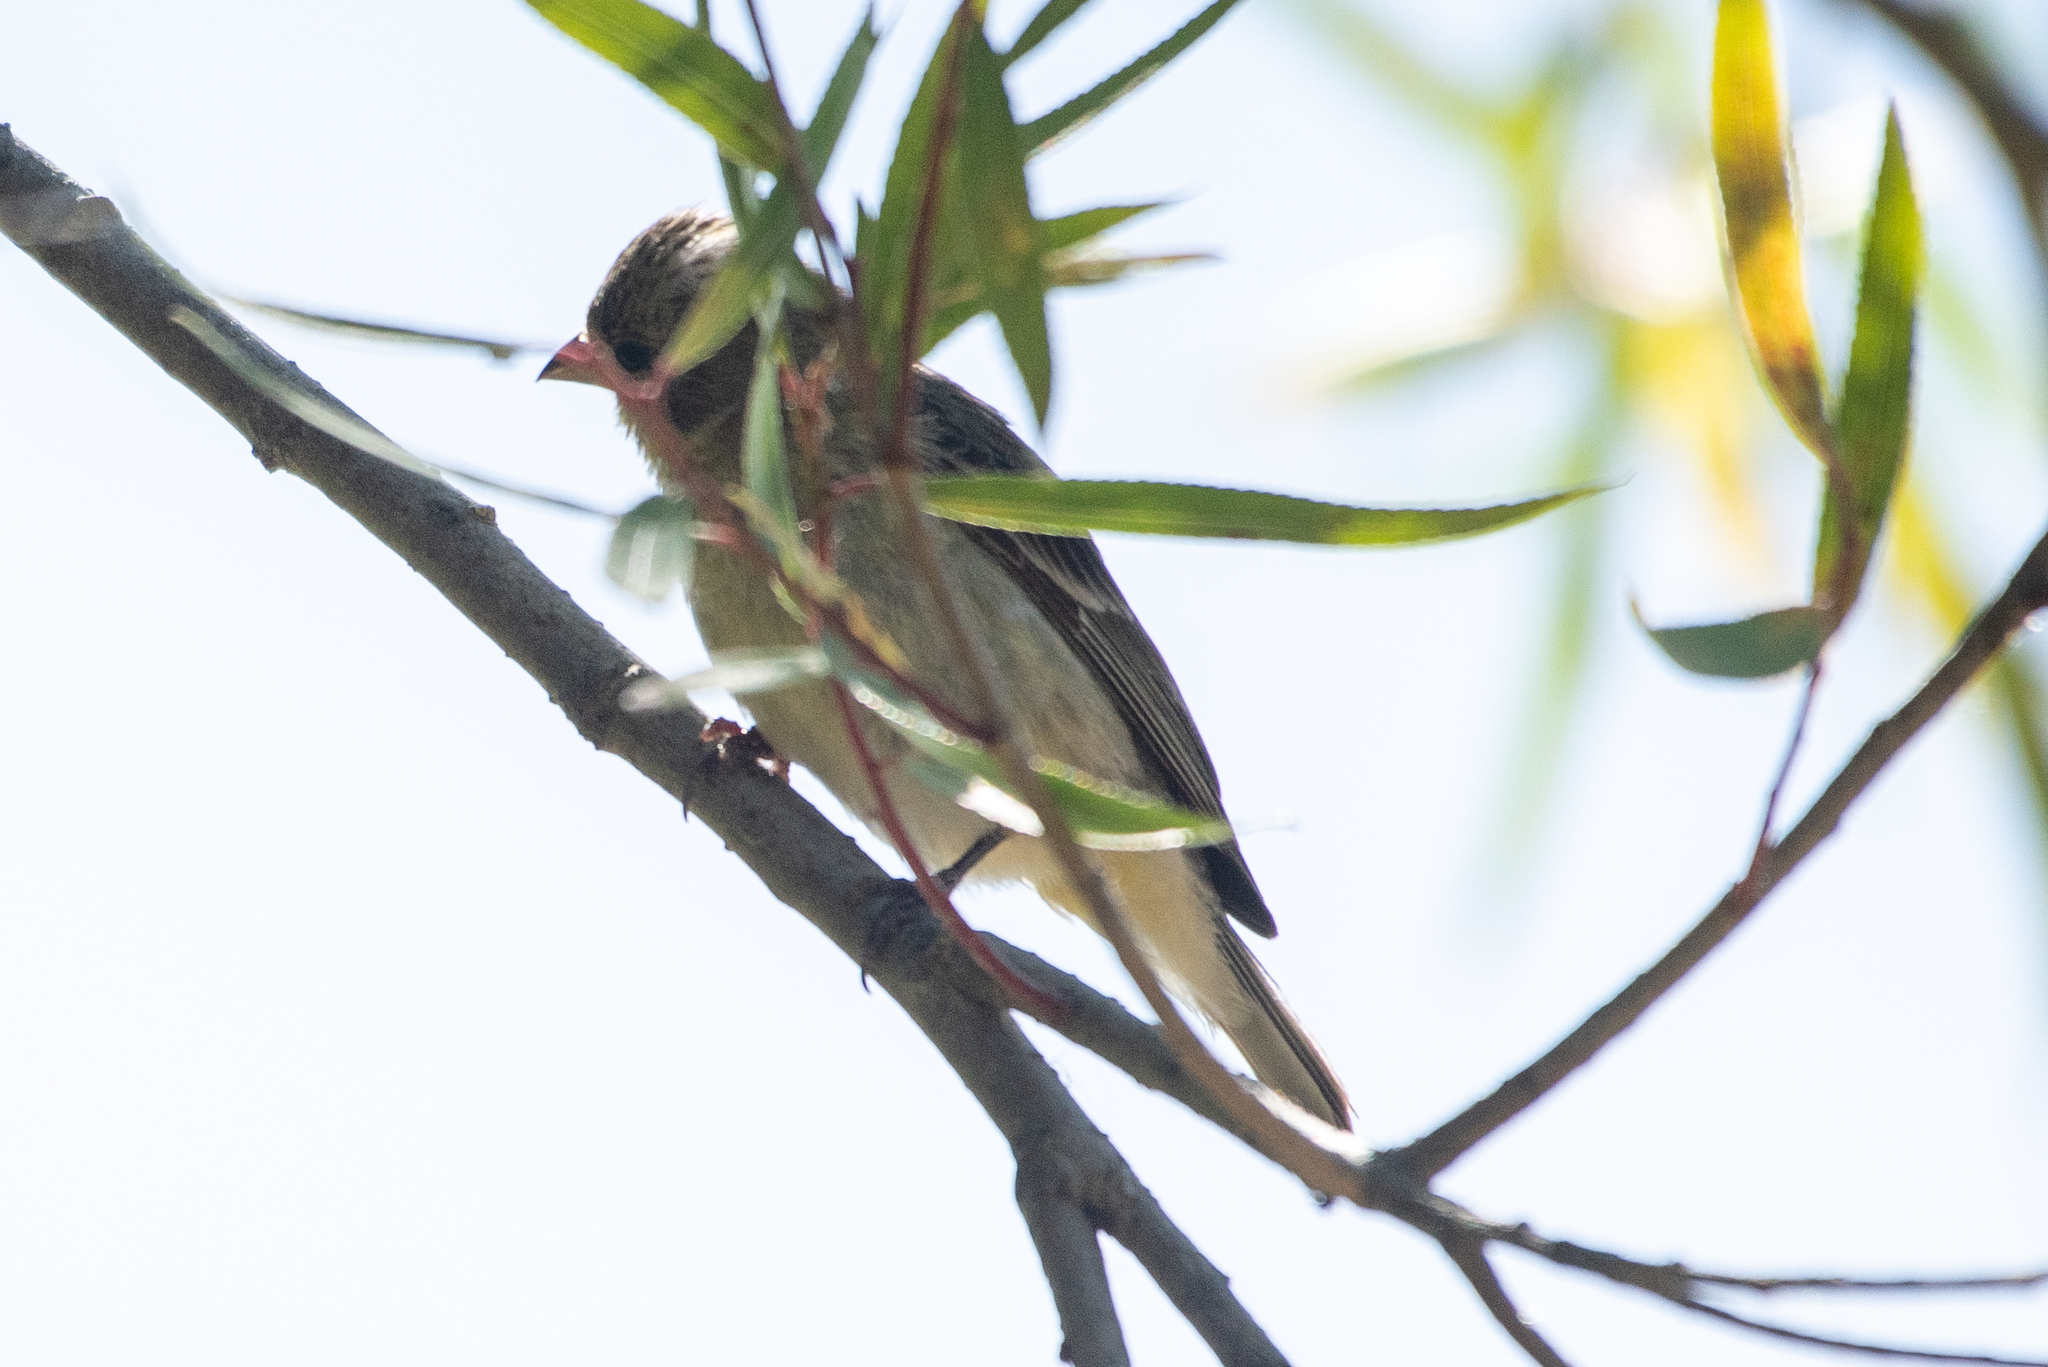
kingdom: Animalia
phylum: Chordata
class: Aves
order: Passeriformes
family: Fringillidae
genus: Spinus
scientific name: Spinus psaltria
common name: Lesser goldfinch
